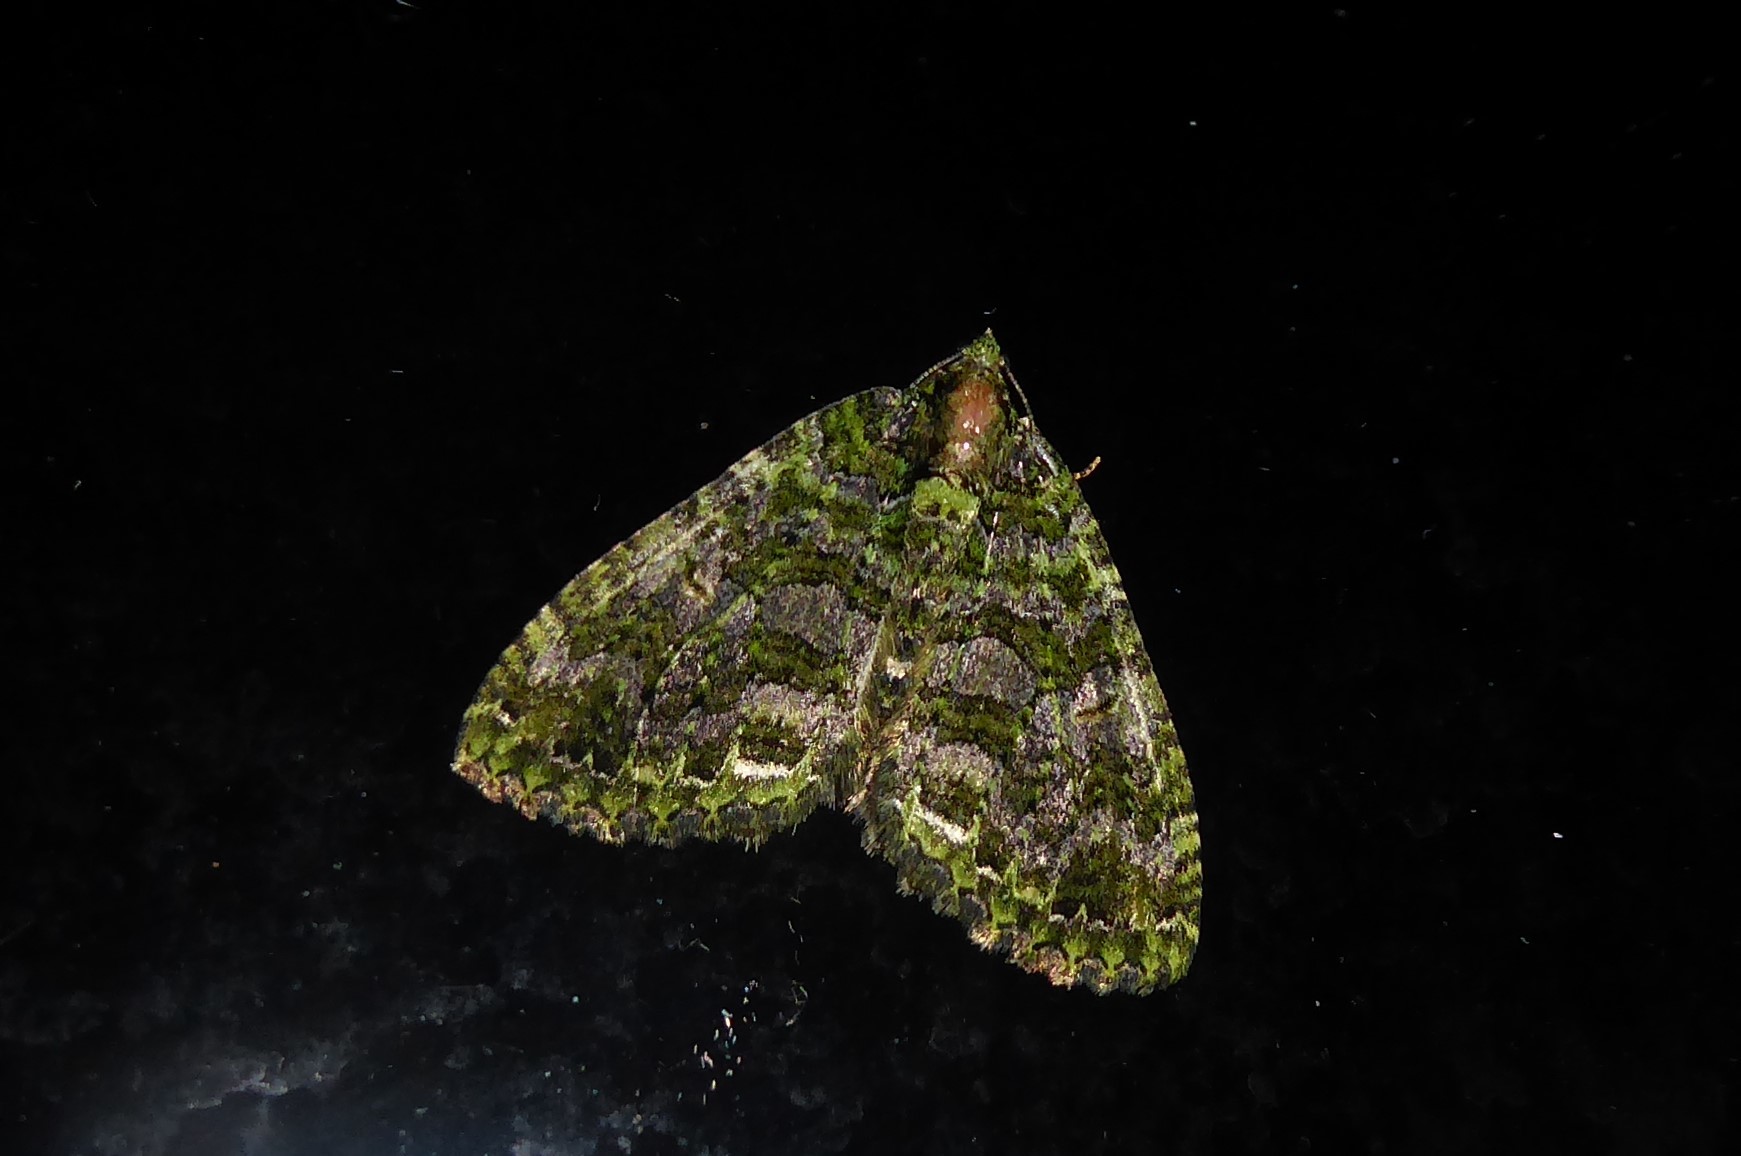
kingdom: Animalia
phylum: Arthropoda
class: Insecta
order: Lepidoptera
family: Geometridae
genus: Austrocidaria
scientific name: Austrocidaria similata
